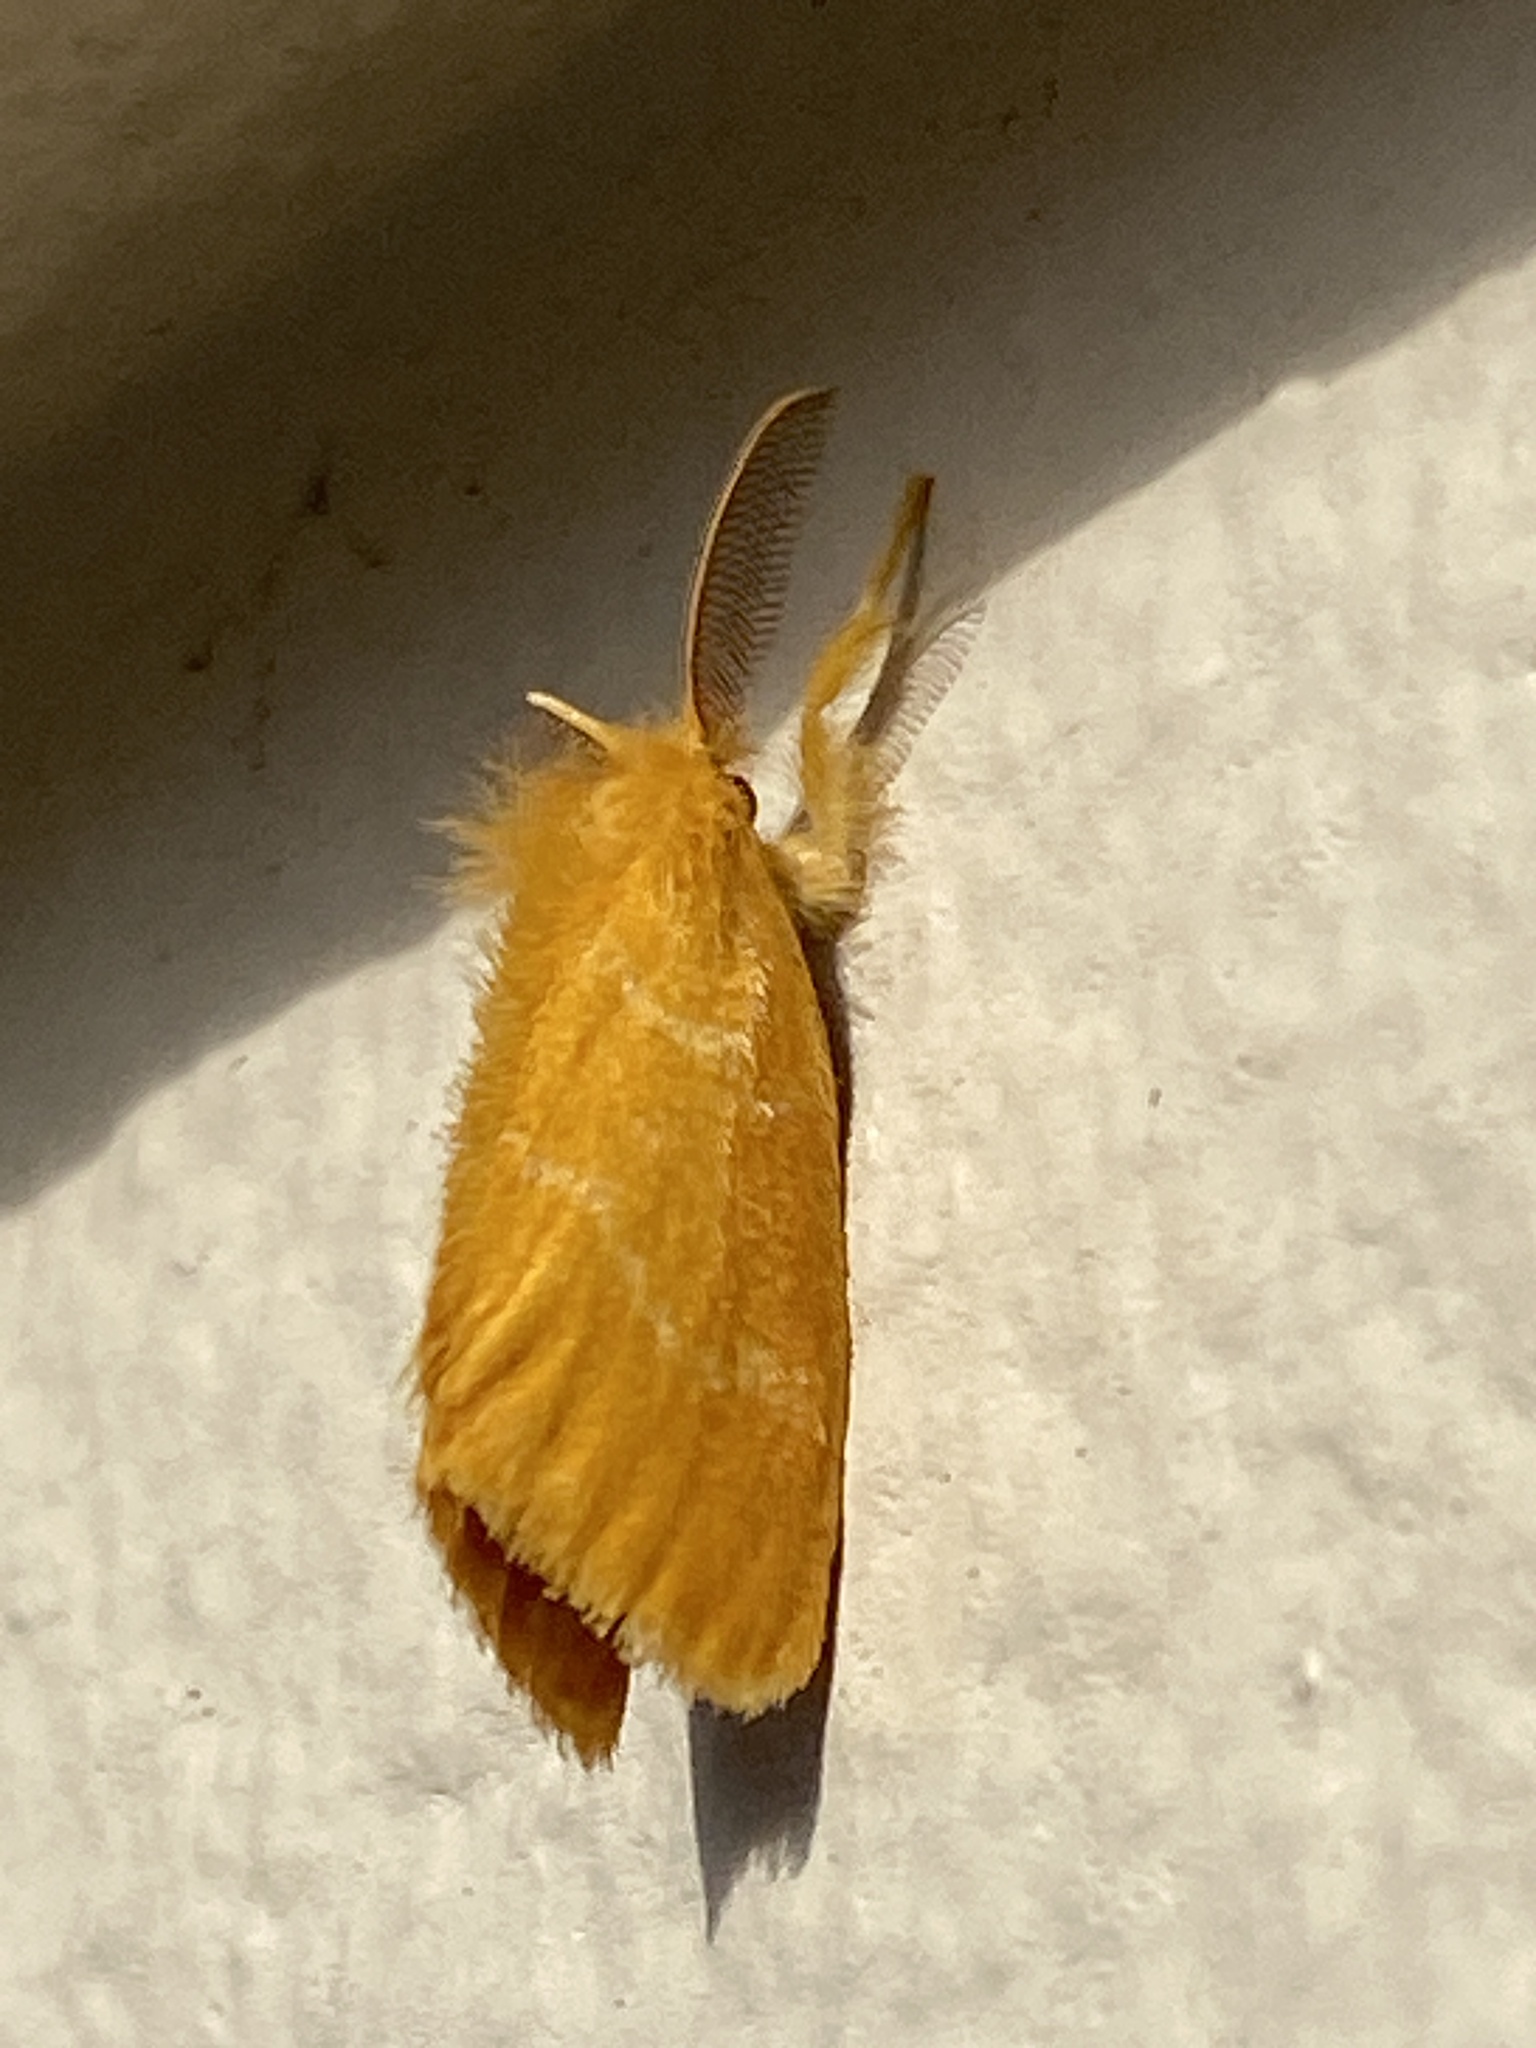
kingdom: Animalia
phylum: Arthropoda
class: Insecta
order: Lepidoptera
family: Erebidae
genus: Euproctis
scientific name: Euproctis lutea
